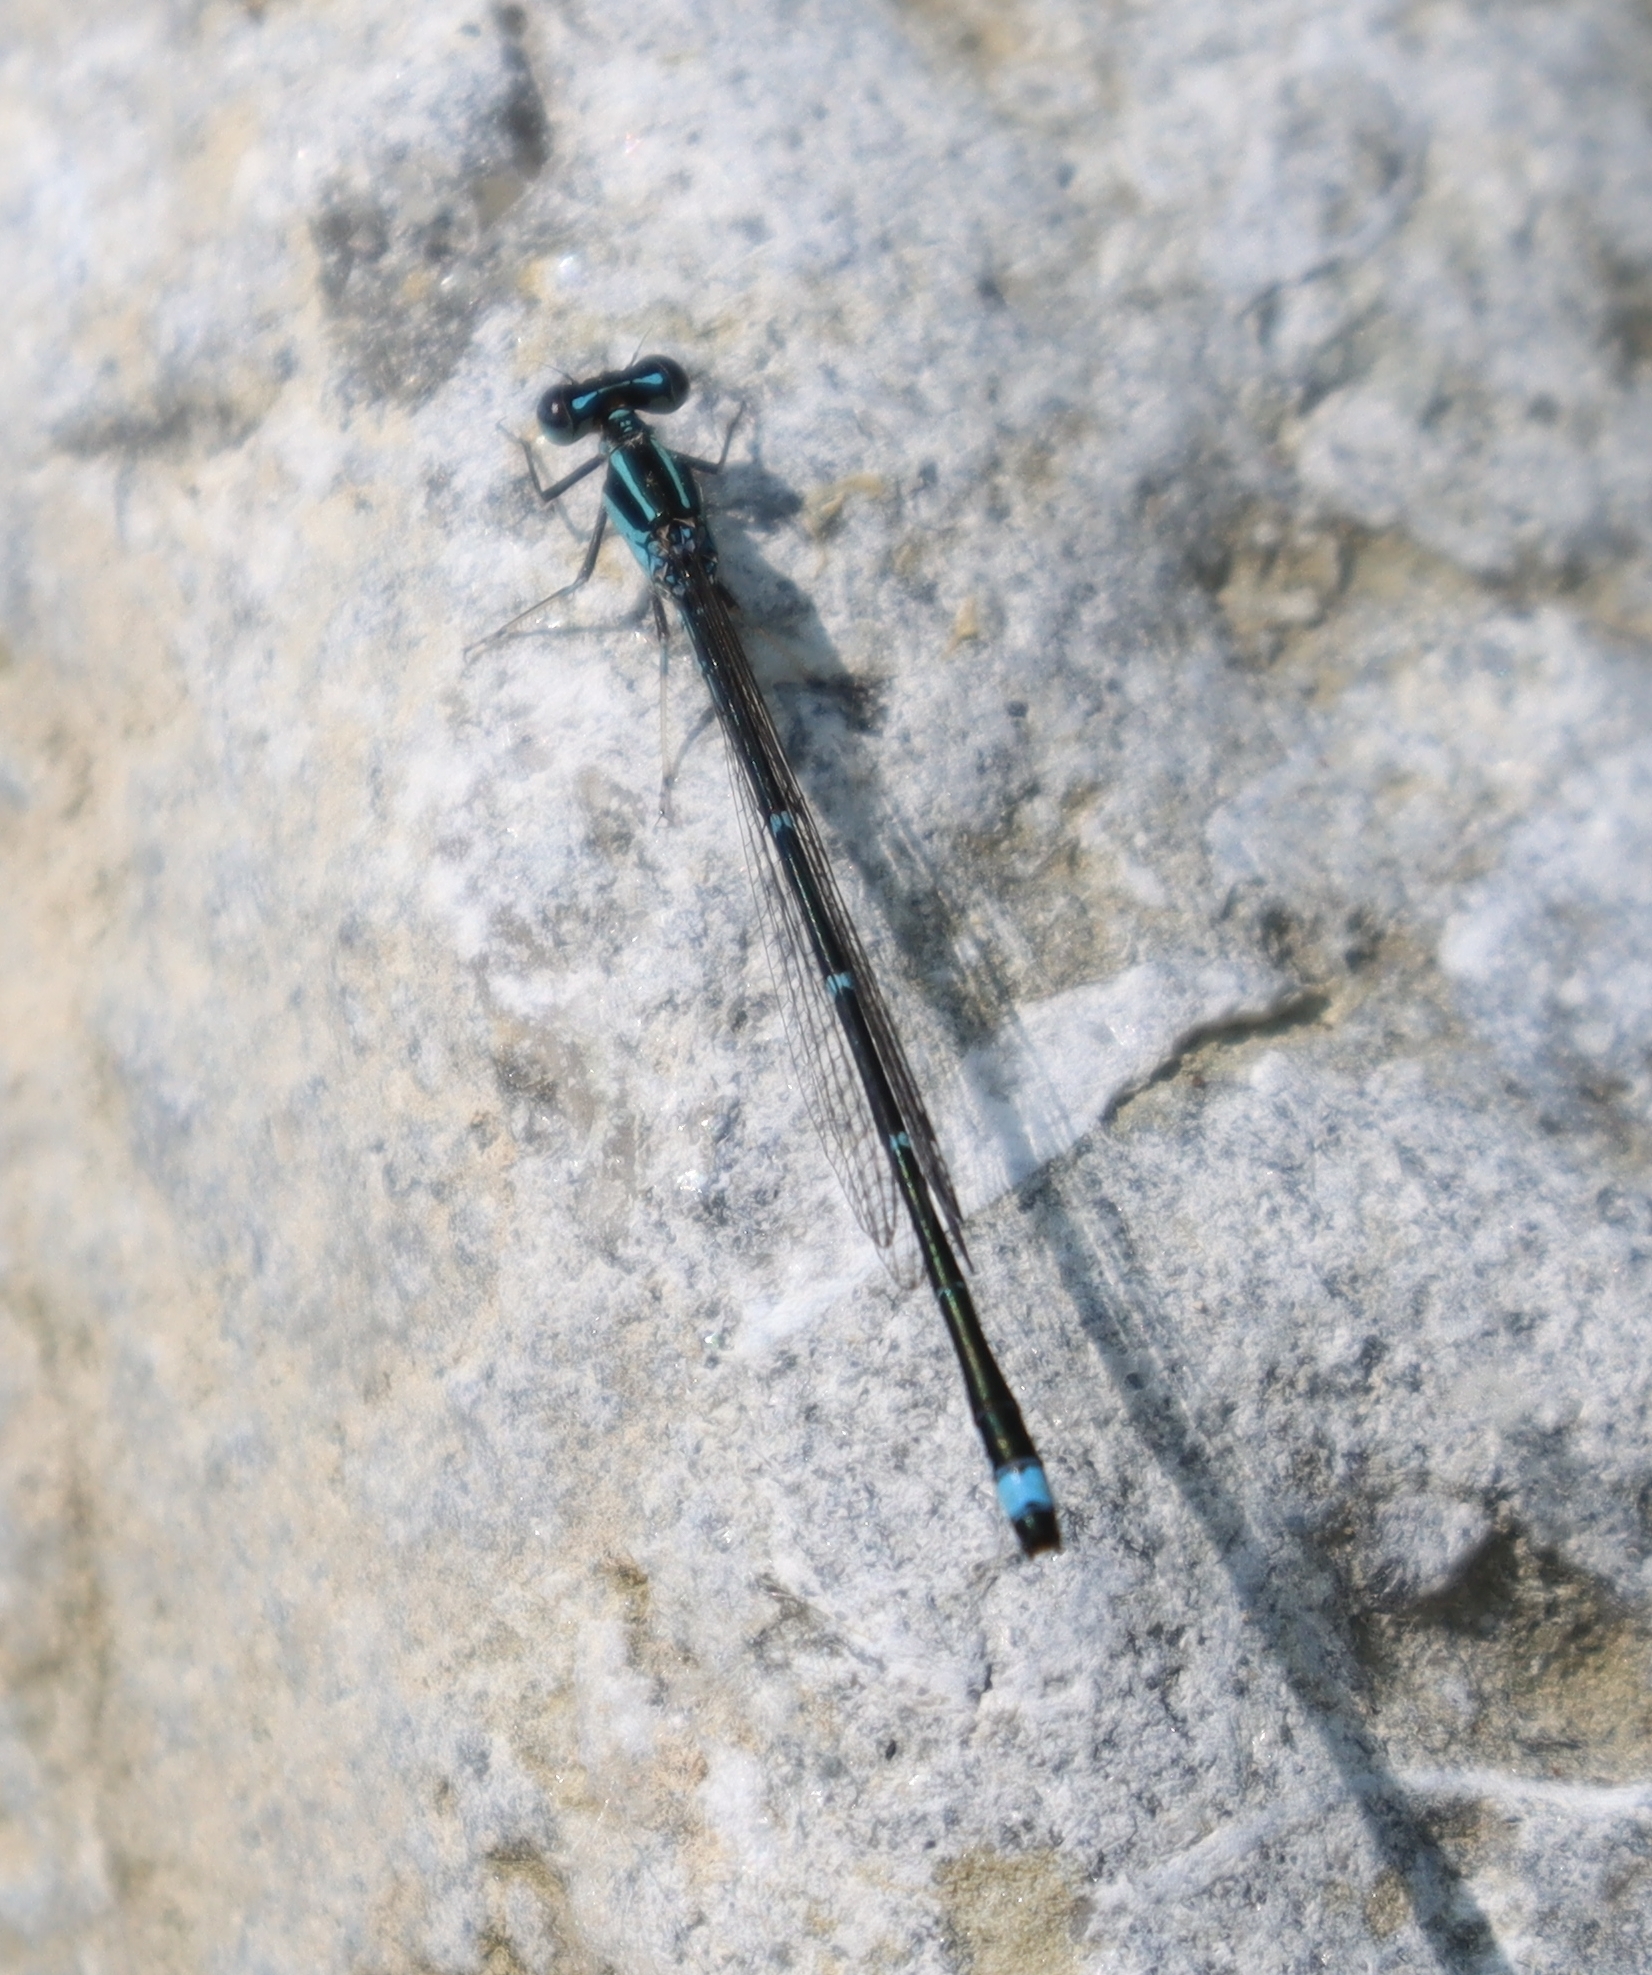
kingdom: Animalia
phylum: Arthropoda
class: Insecta
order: Odonata
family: Coenagrionidae
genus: Enallagma
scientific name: Enallagma exsulans
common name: Stream bluet
